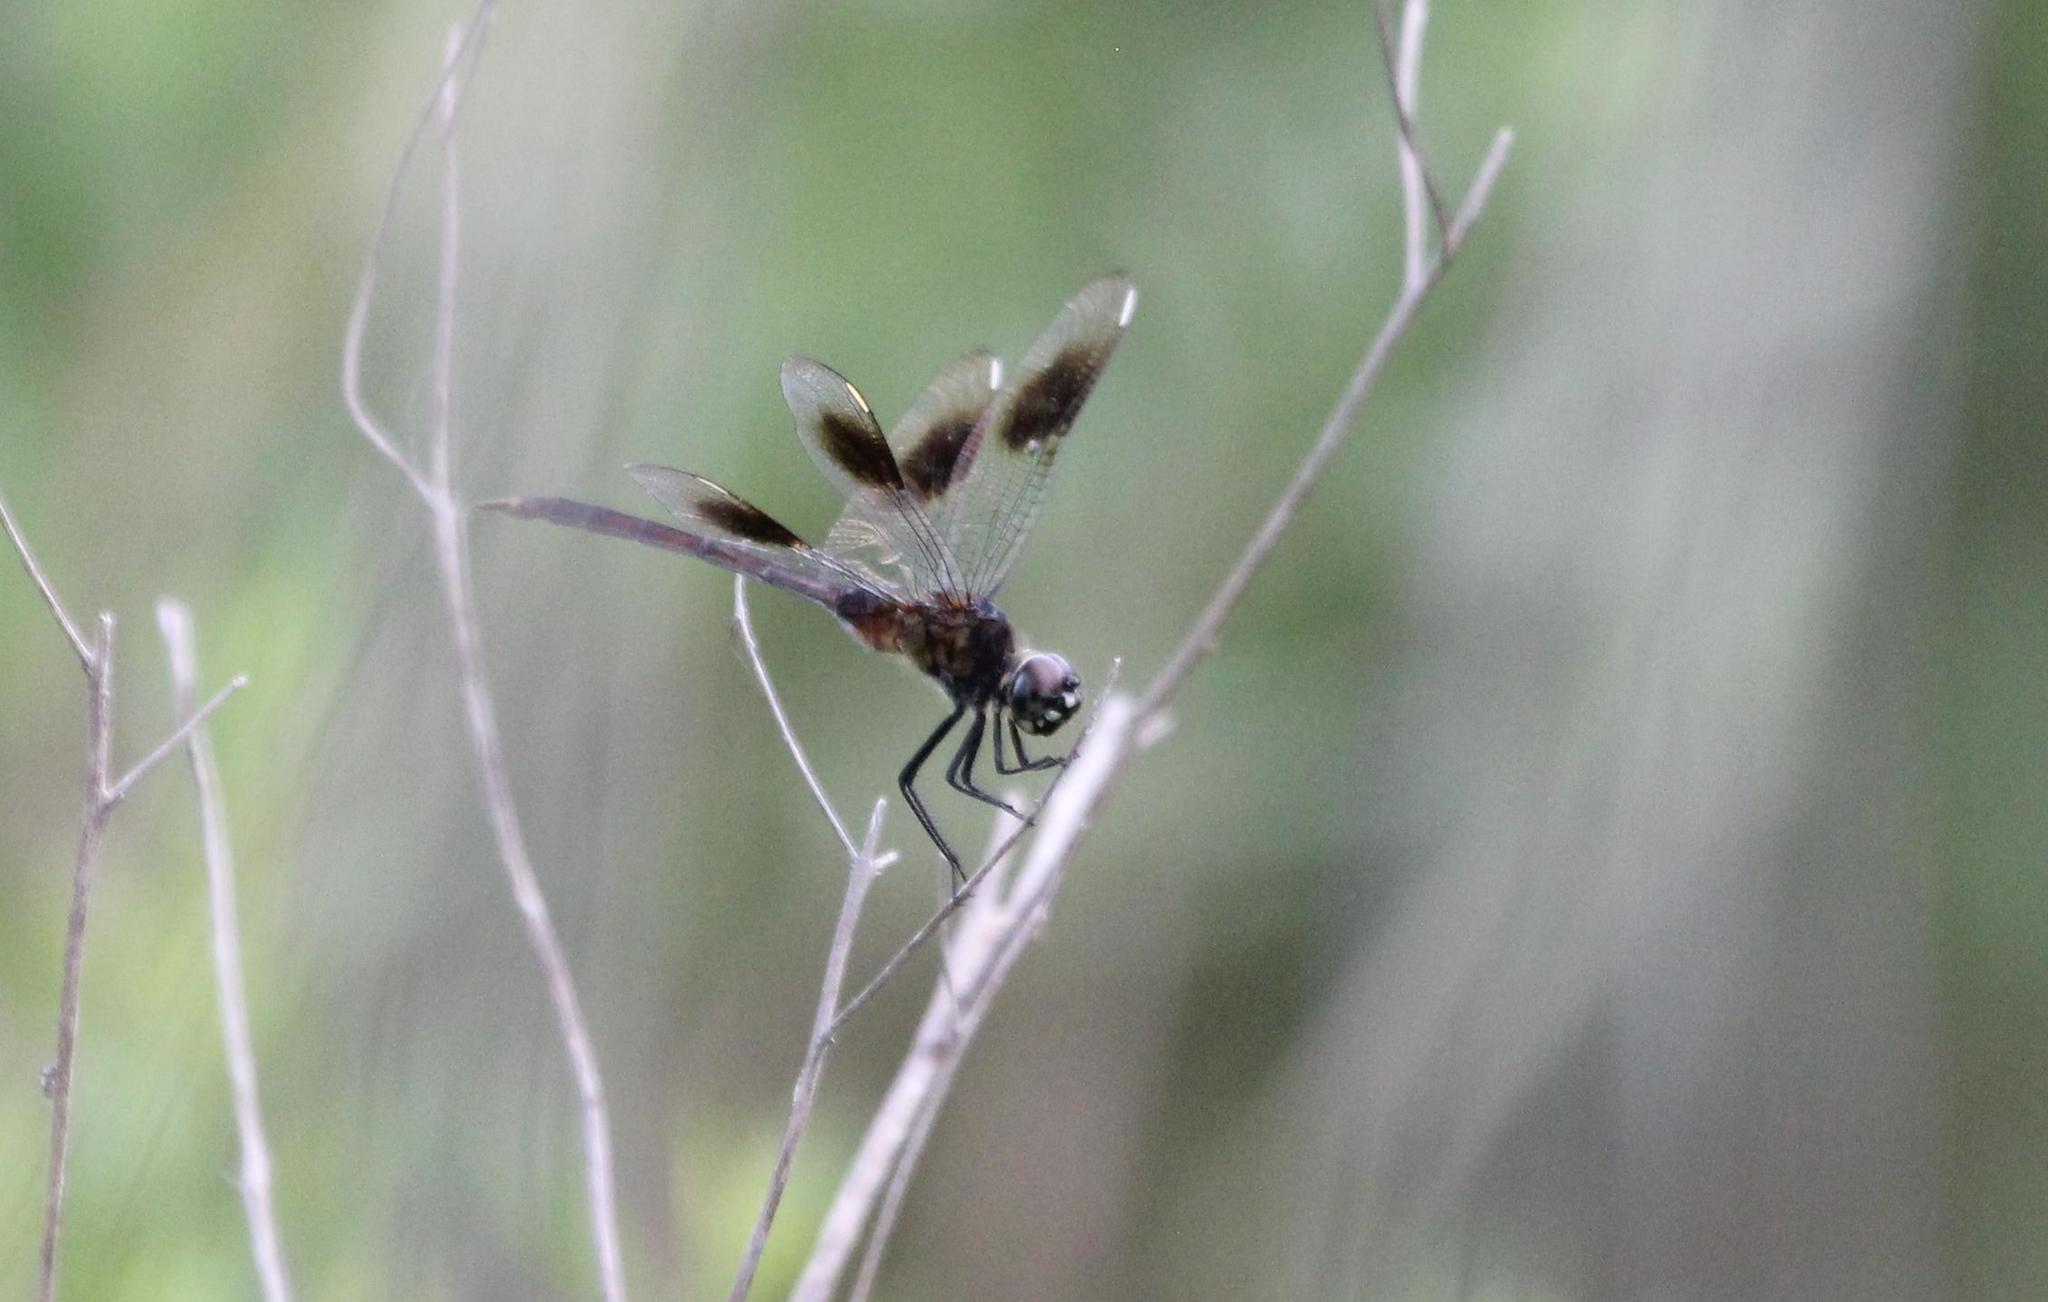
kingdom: Animalia
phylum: Arthropoda
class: Insecta
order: Odonata
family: Libellulidae
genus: Brachymesia
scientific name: Brachymesia gravida
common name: Four-spotted pennant
